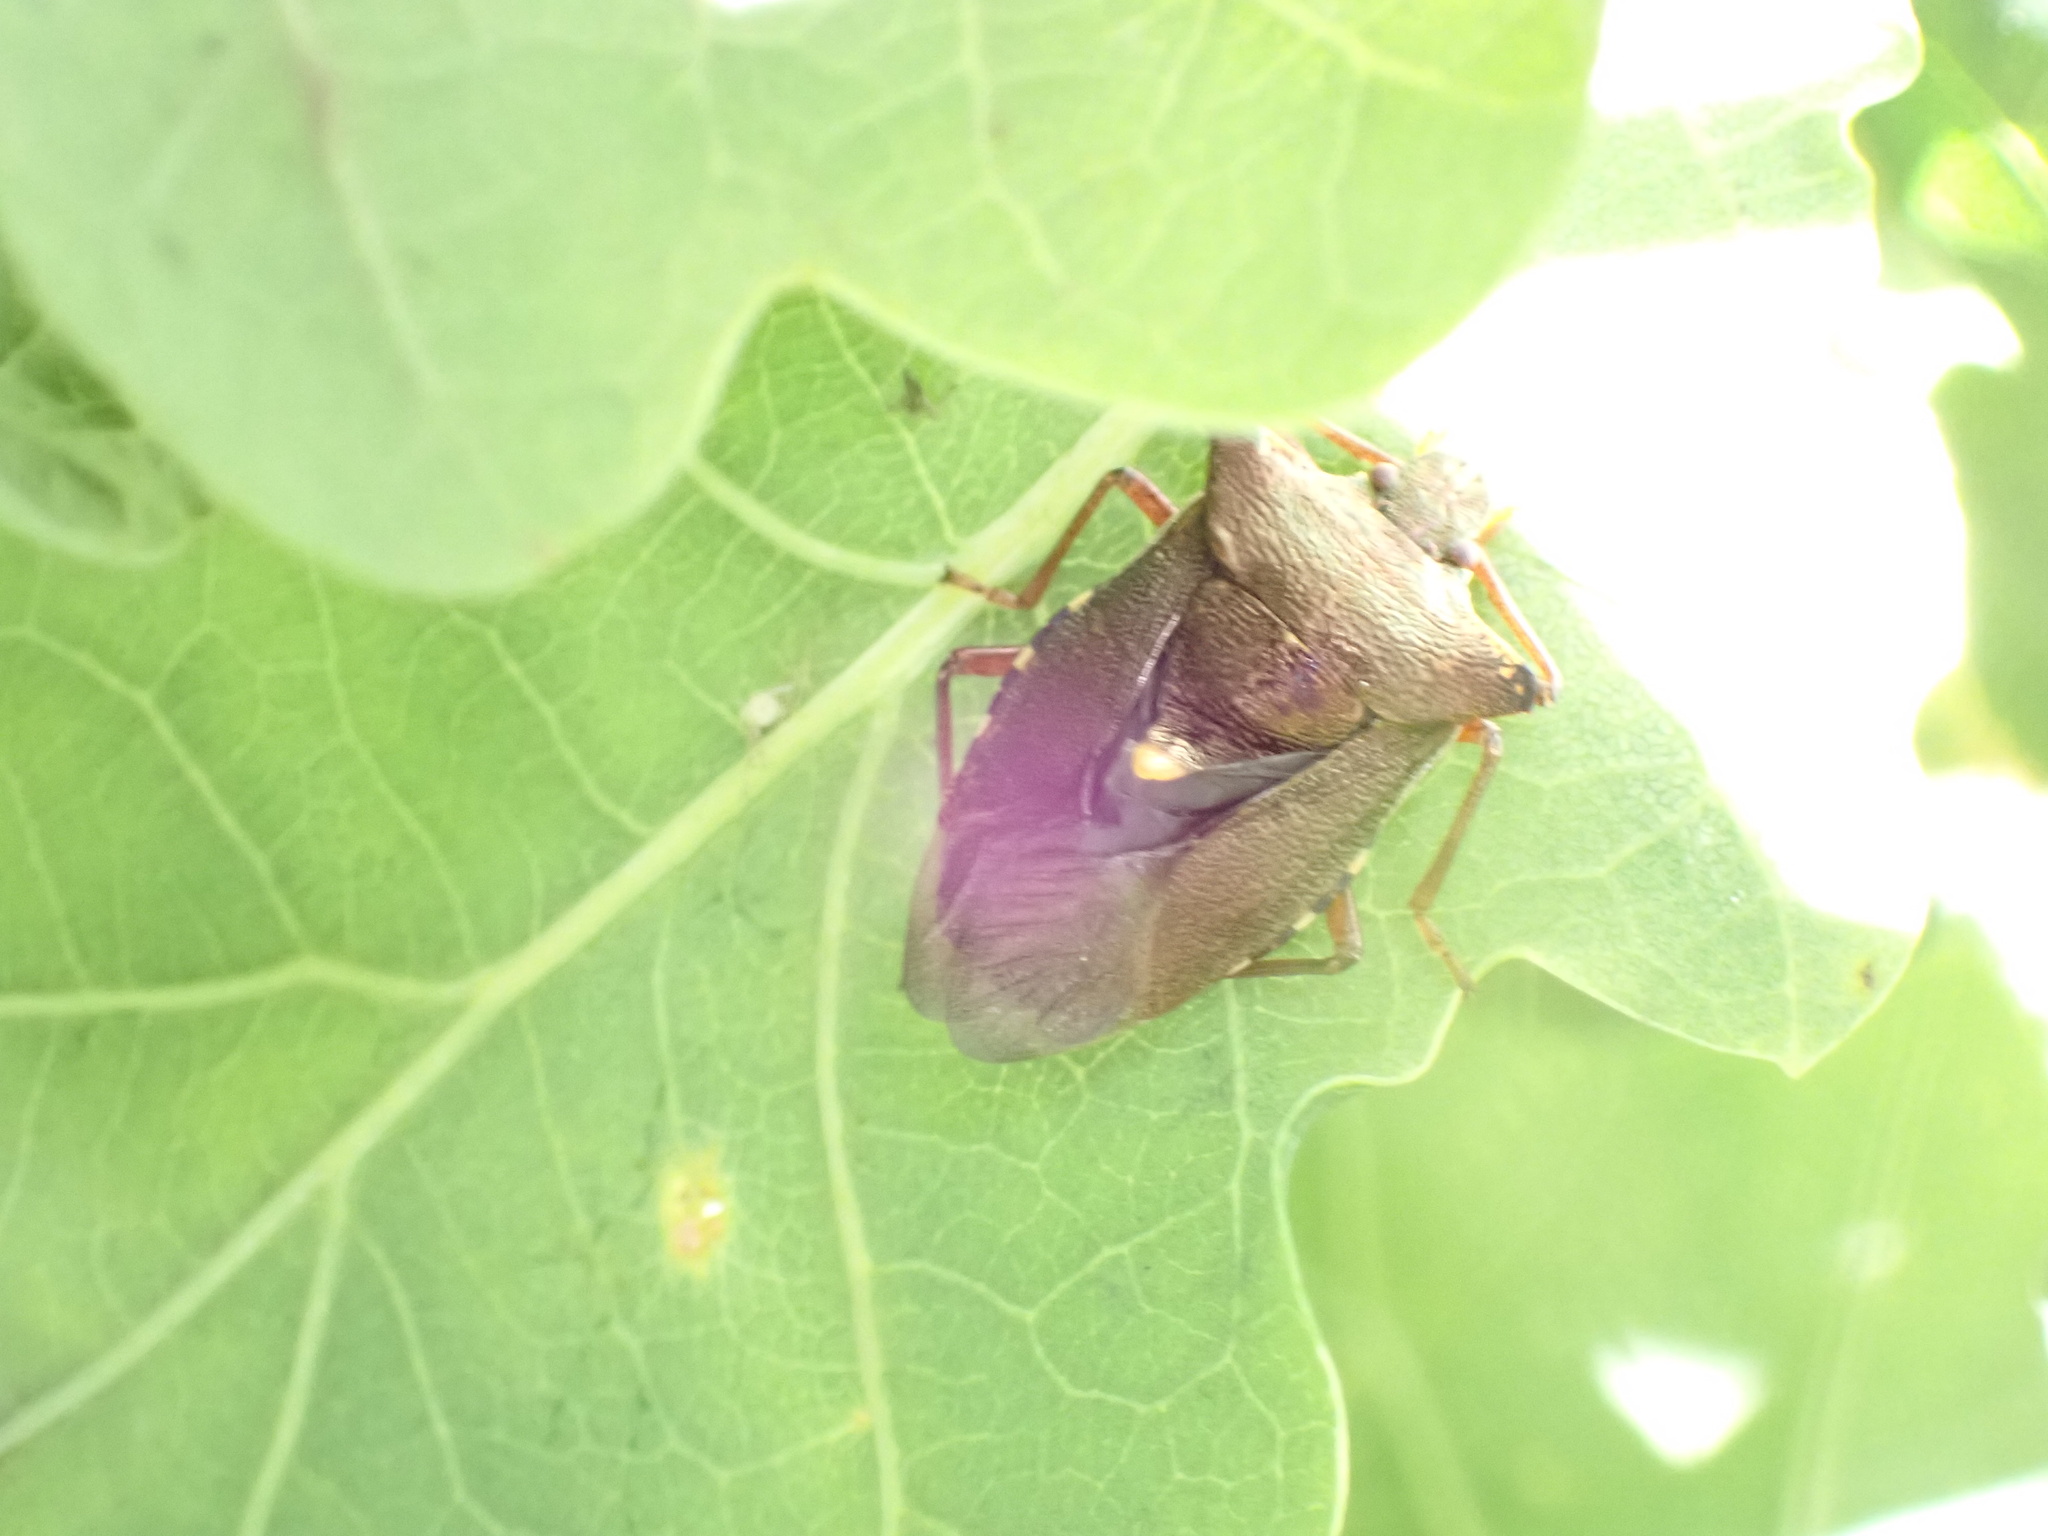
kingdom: Animalia
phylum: Arthropoda
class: Insecta
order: Hemiptera
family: Pentatomidae
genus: Pentatoma
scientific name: Pentatoma rufipes
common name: Forest bug
